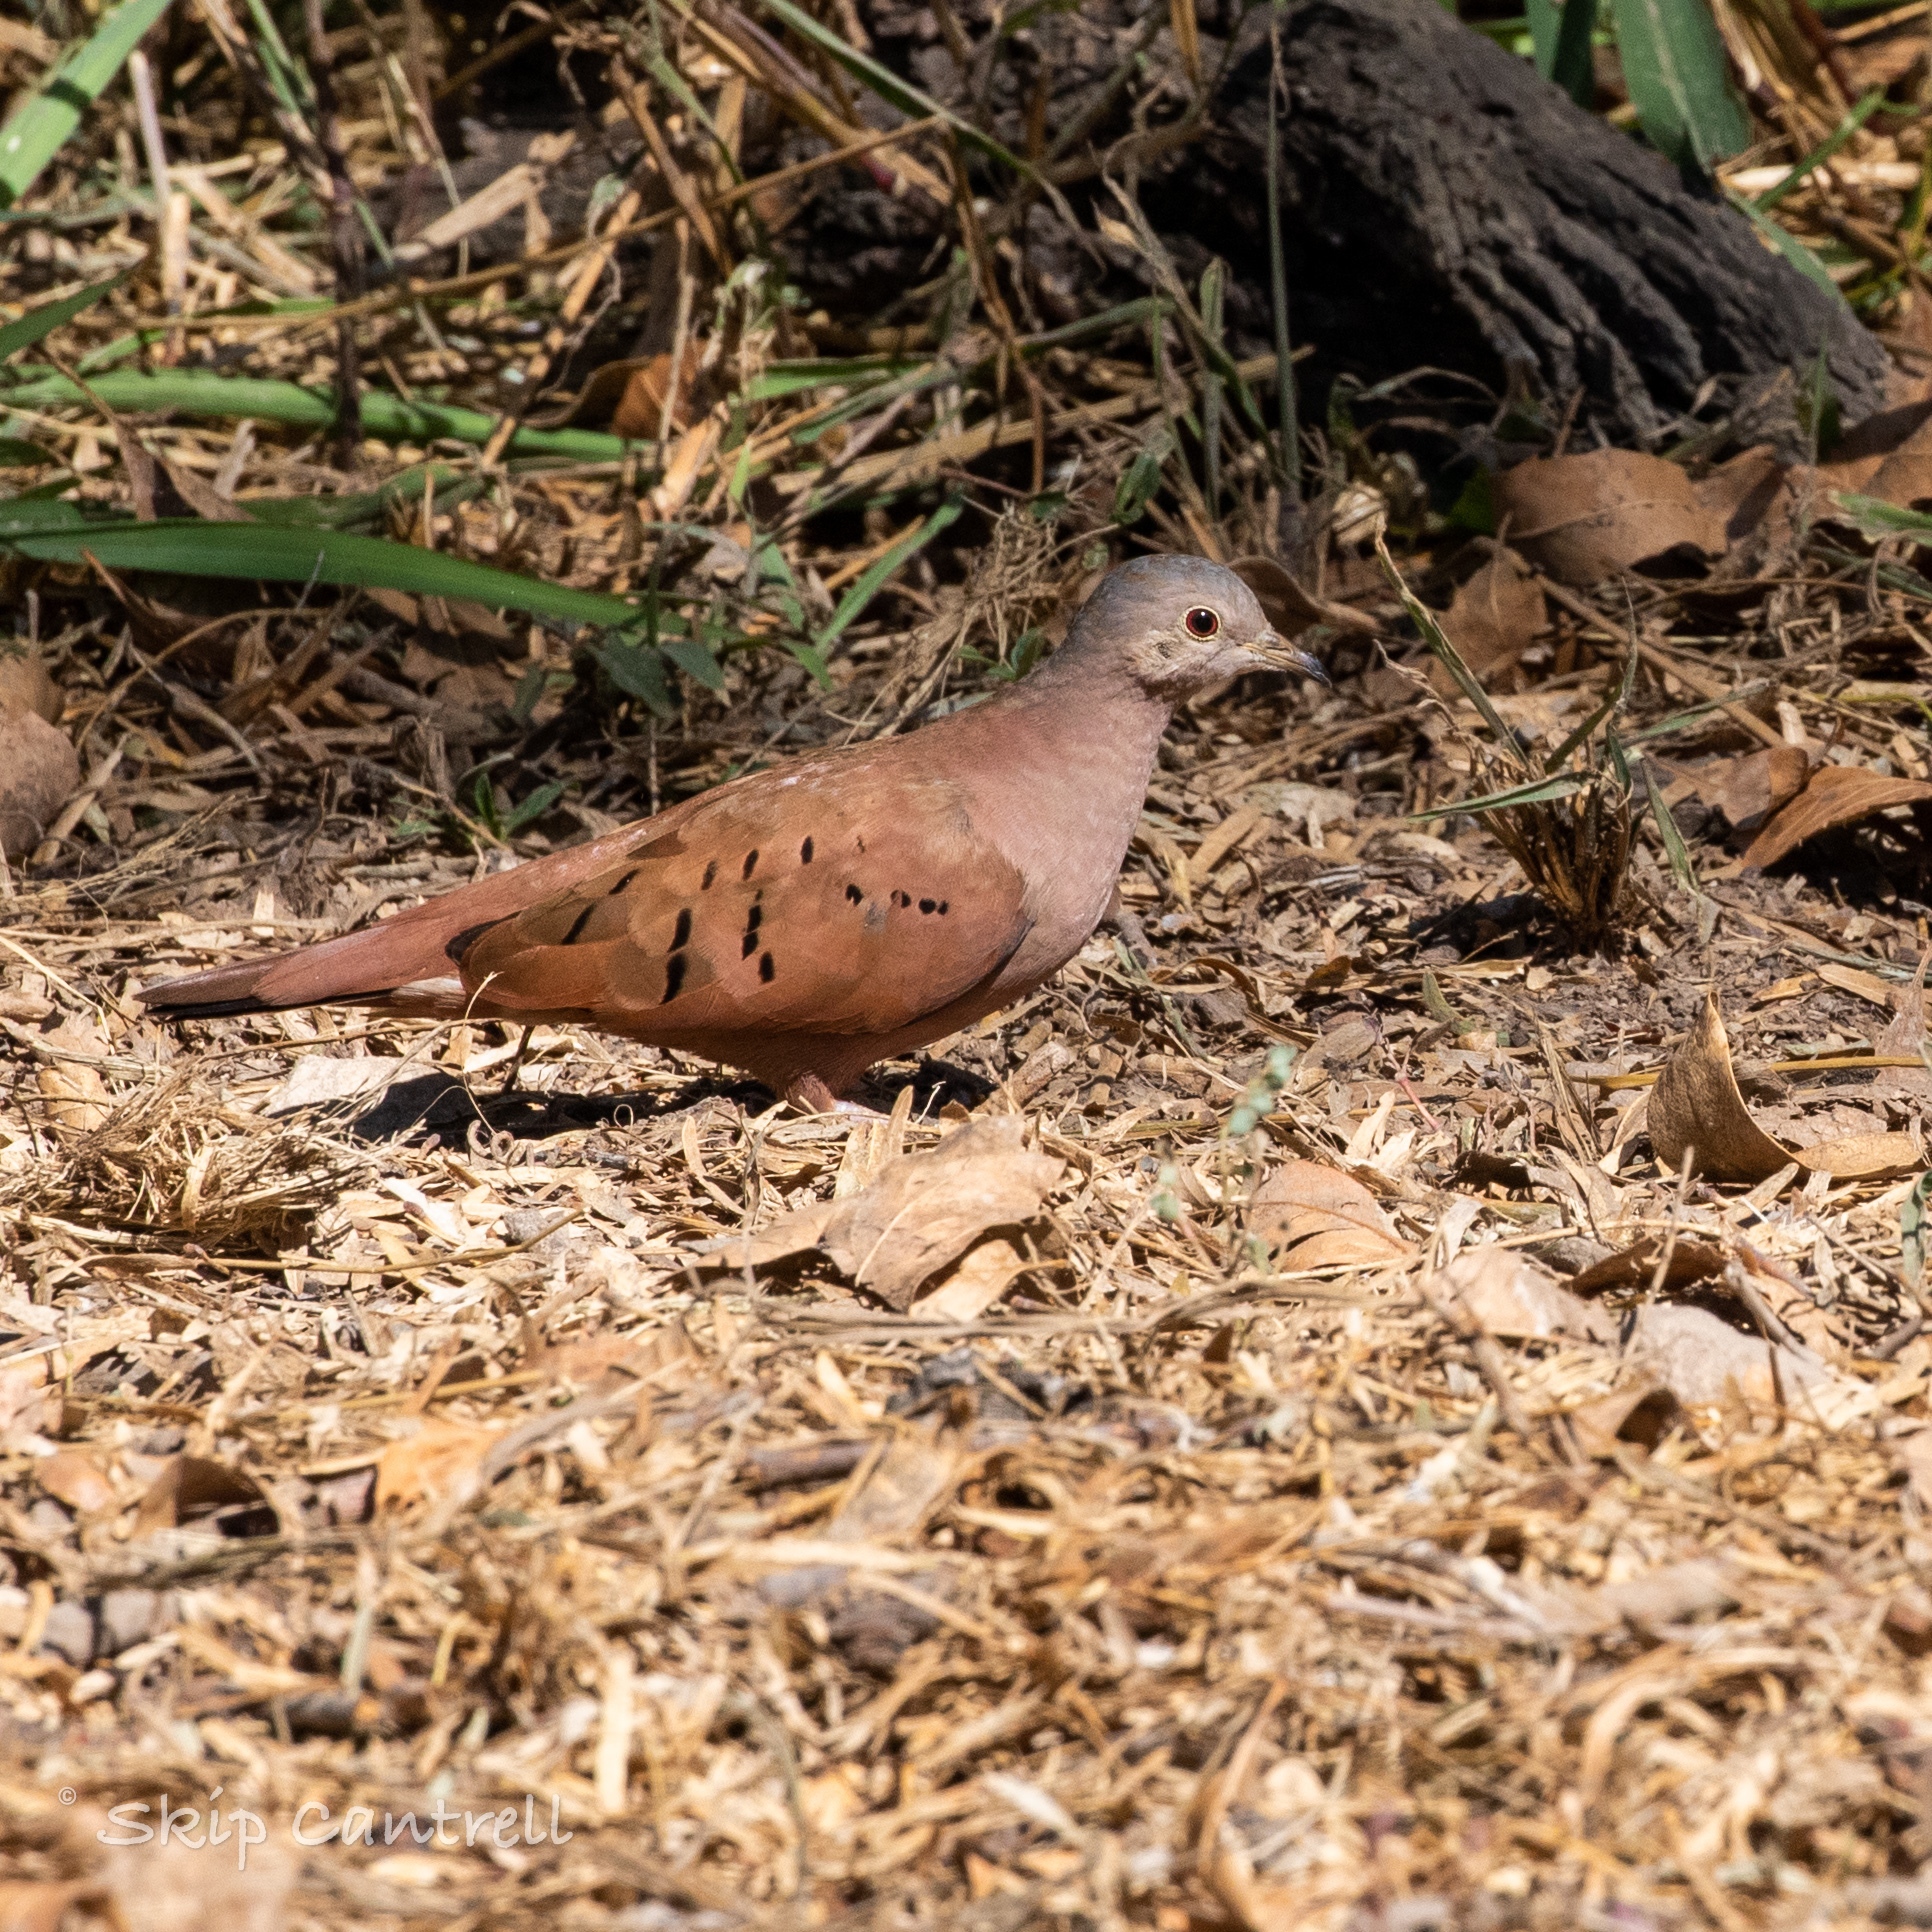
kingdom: Animalia
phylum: Chordata
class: Aves
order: Columbiformes
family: Columbidae
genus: Columbina
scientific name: Columbina talpacoti
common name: Ruddy ground dove
